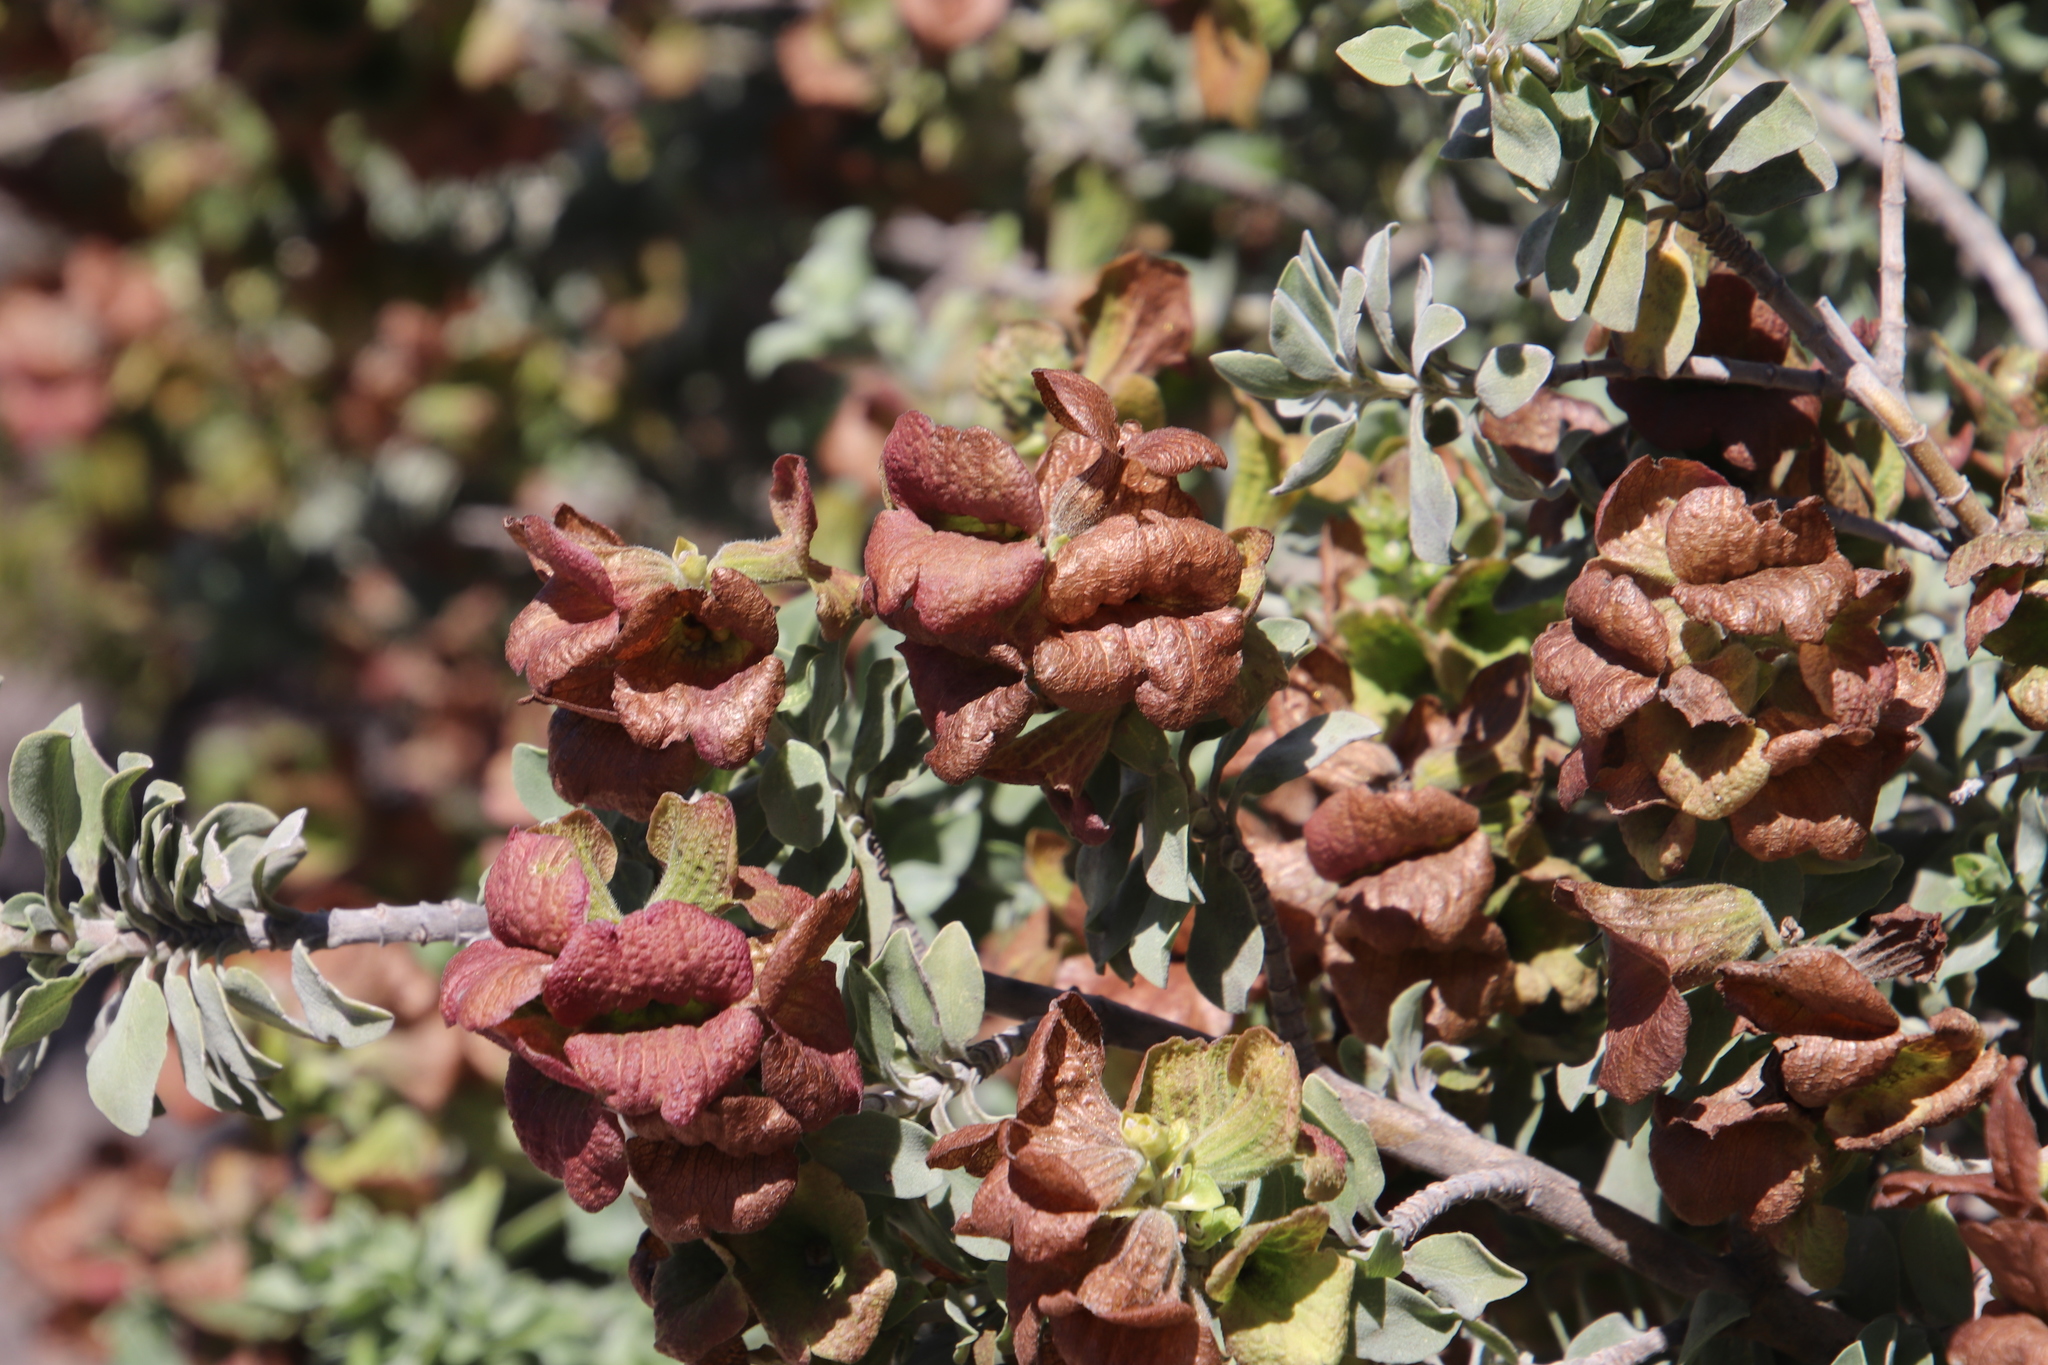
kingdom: Plantae
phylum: Tracheophyta
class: Magnoliopsida
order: Lamiales
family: Lamiaceae
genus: Salvia
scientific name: Salvia aurea
